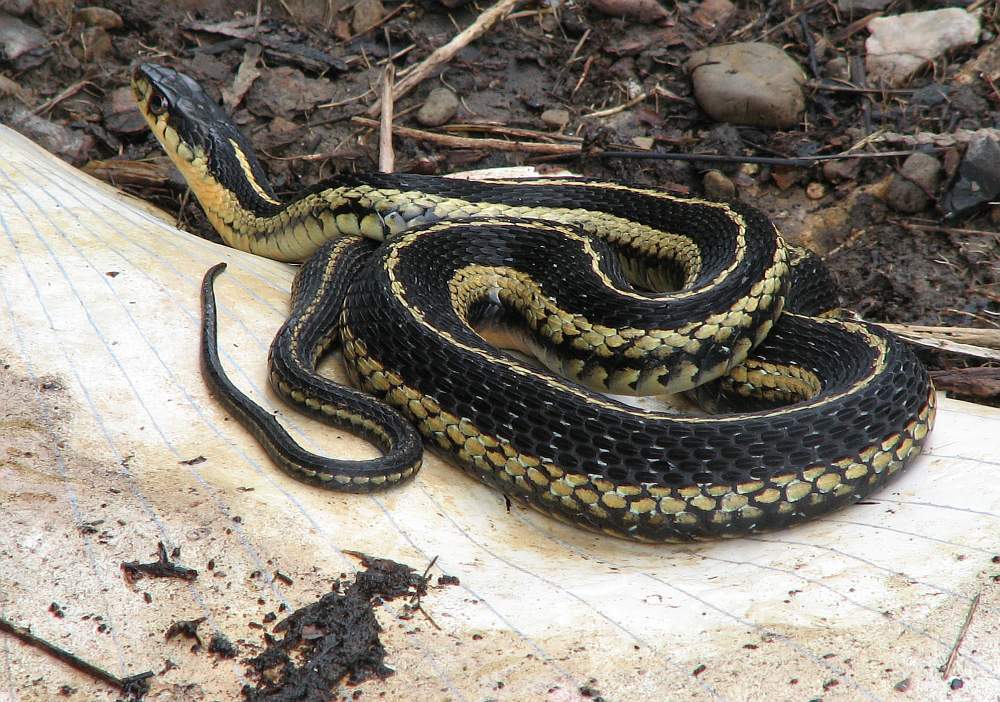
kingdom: Animalia
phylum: Chordata
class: Squamata
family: Colubridae
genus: Thamnophis
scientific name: Thamnophis sirtalis
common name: Common garter snake
